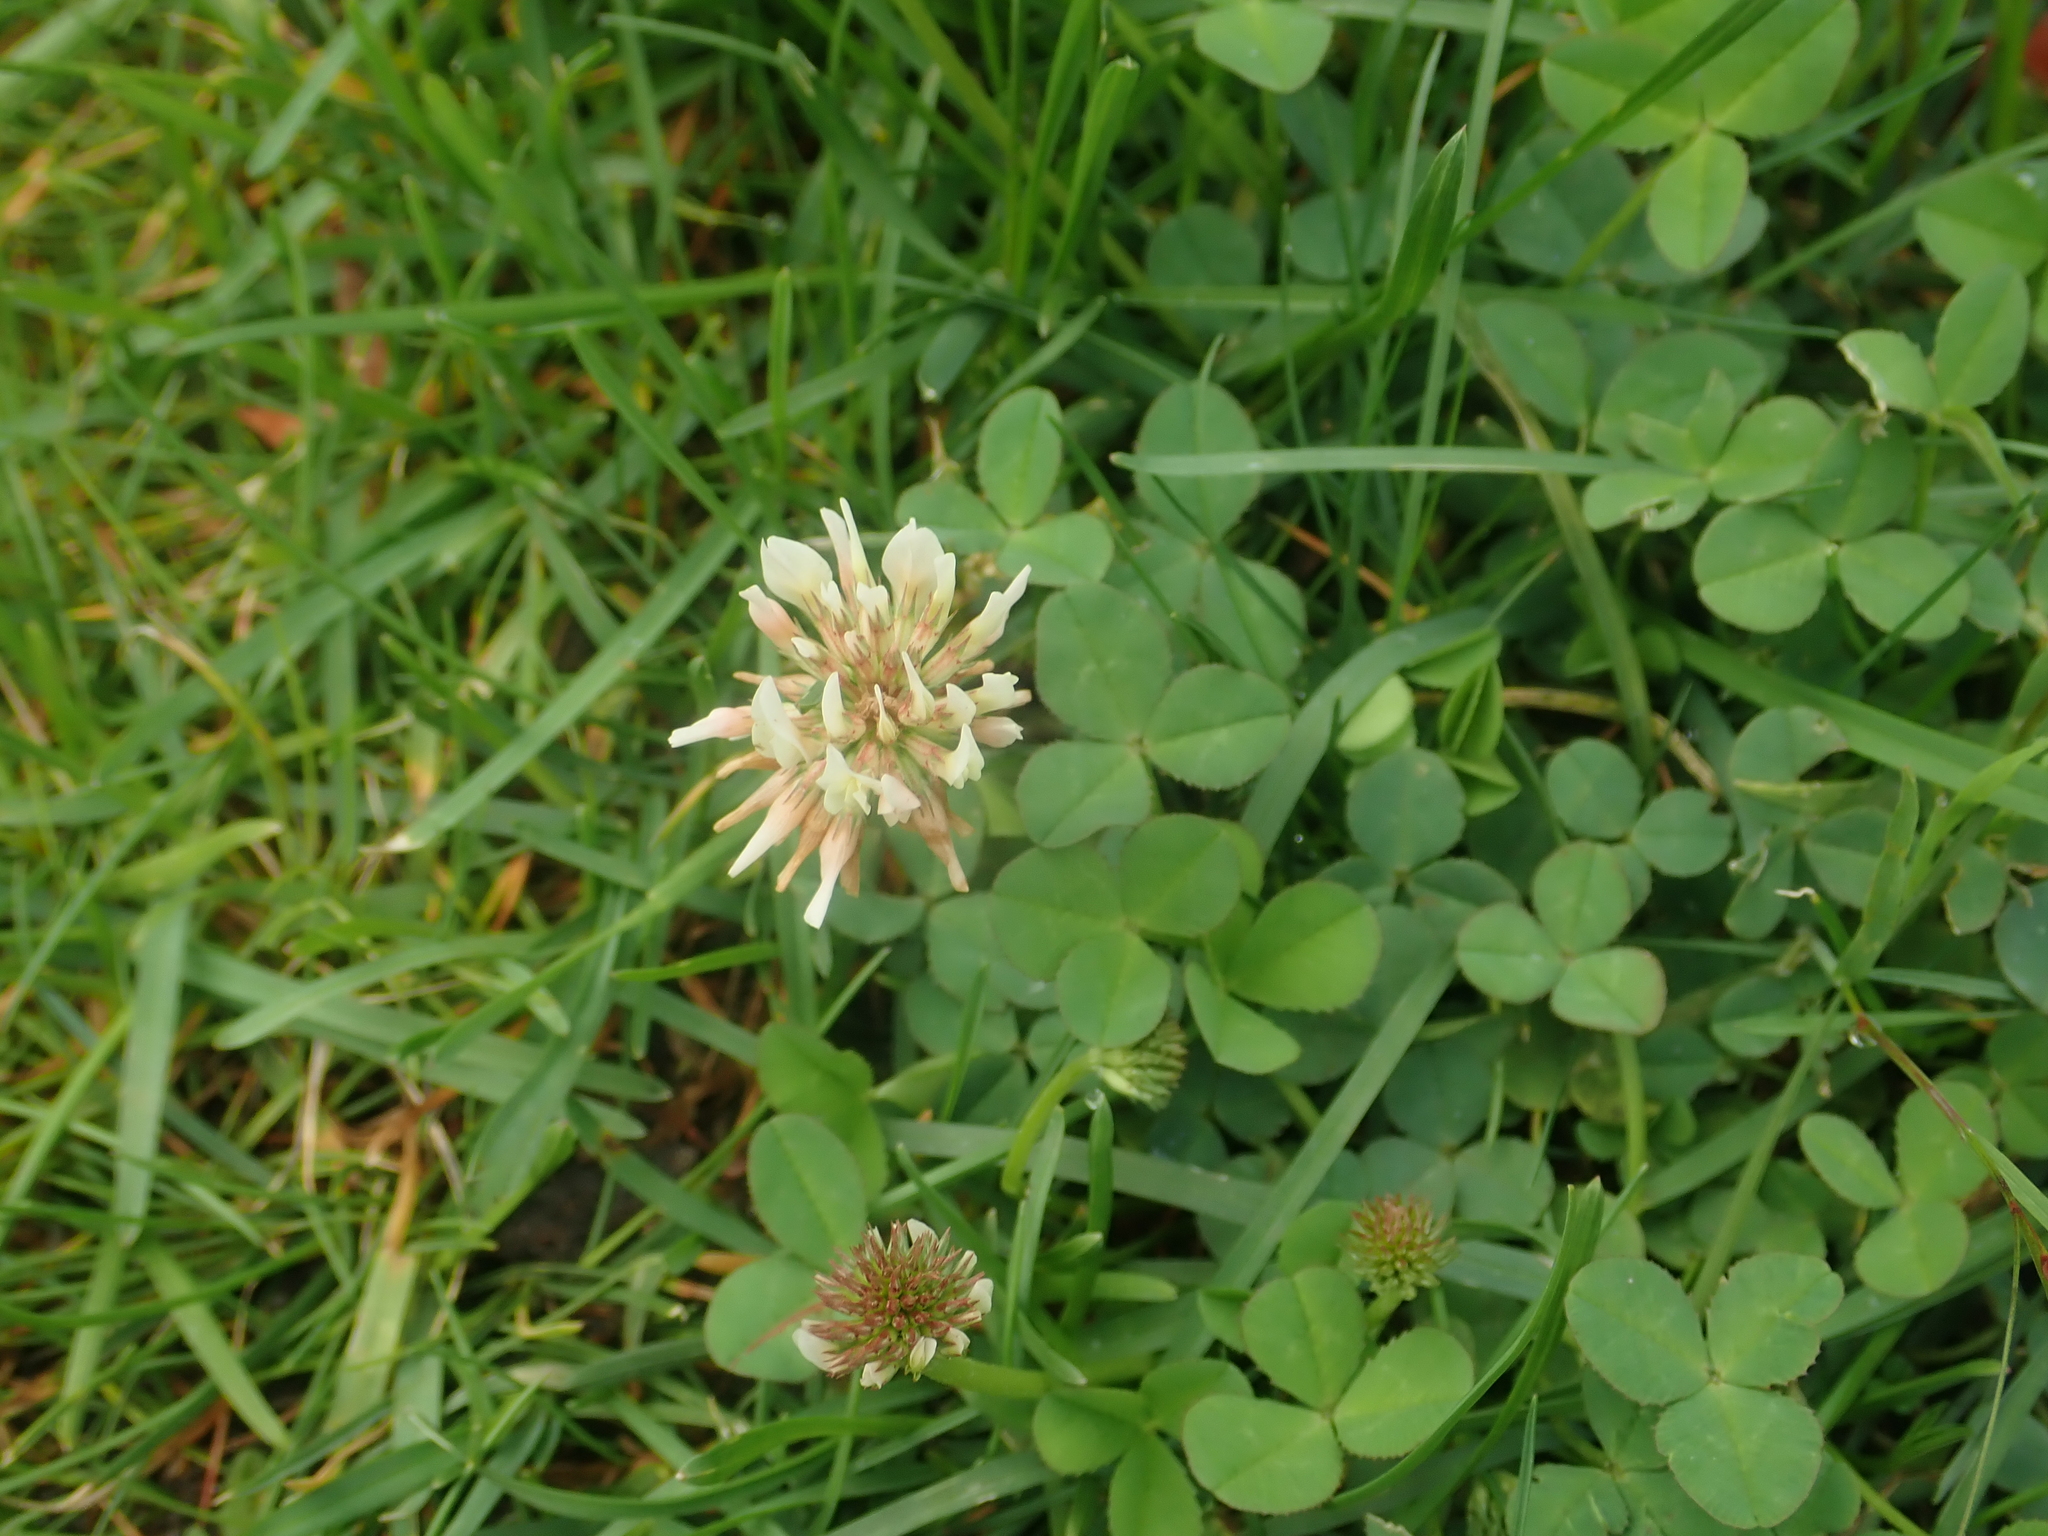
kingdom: Plantae
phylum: Tracheophyta
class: Magnoliopsida
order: Fabales
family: Fabaceae
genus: Trifolium
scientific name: Trifolium repens
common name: White clover
